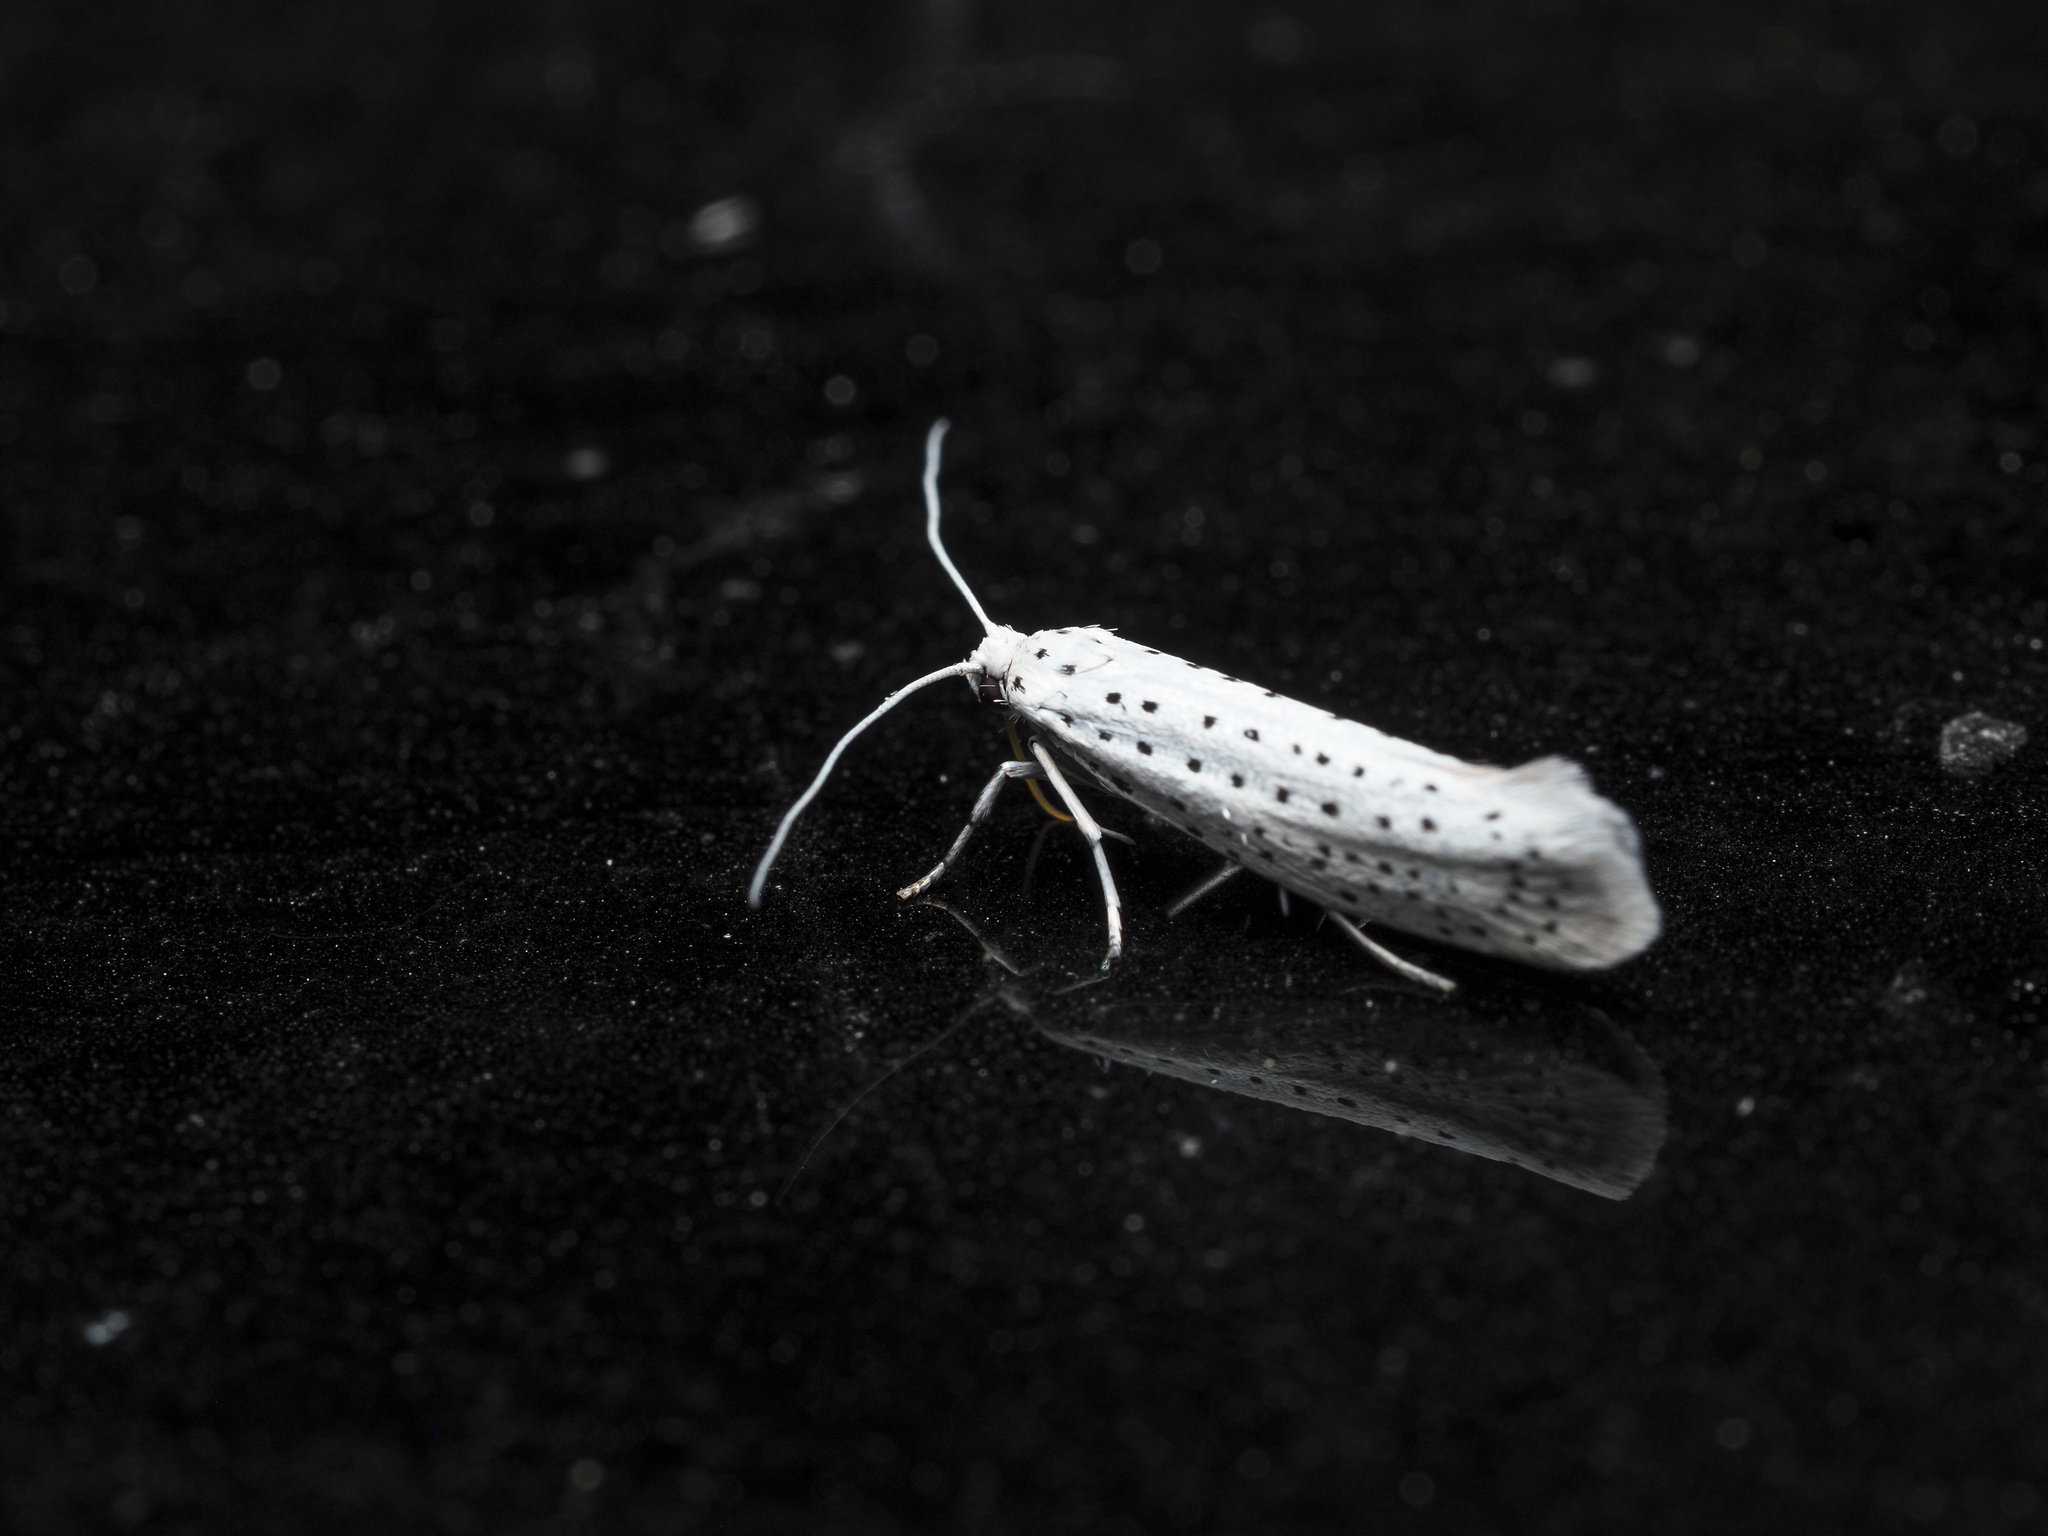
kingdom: Animalia
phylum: Arthropoda
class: Insecta
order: Lepidoptera
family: Yponomeutidae
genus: Yponomeuta
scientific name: Yponomeuta evonymella
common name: Bird-cherry ermine
